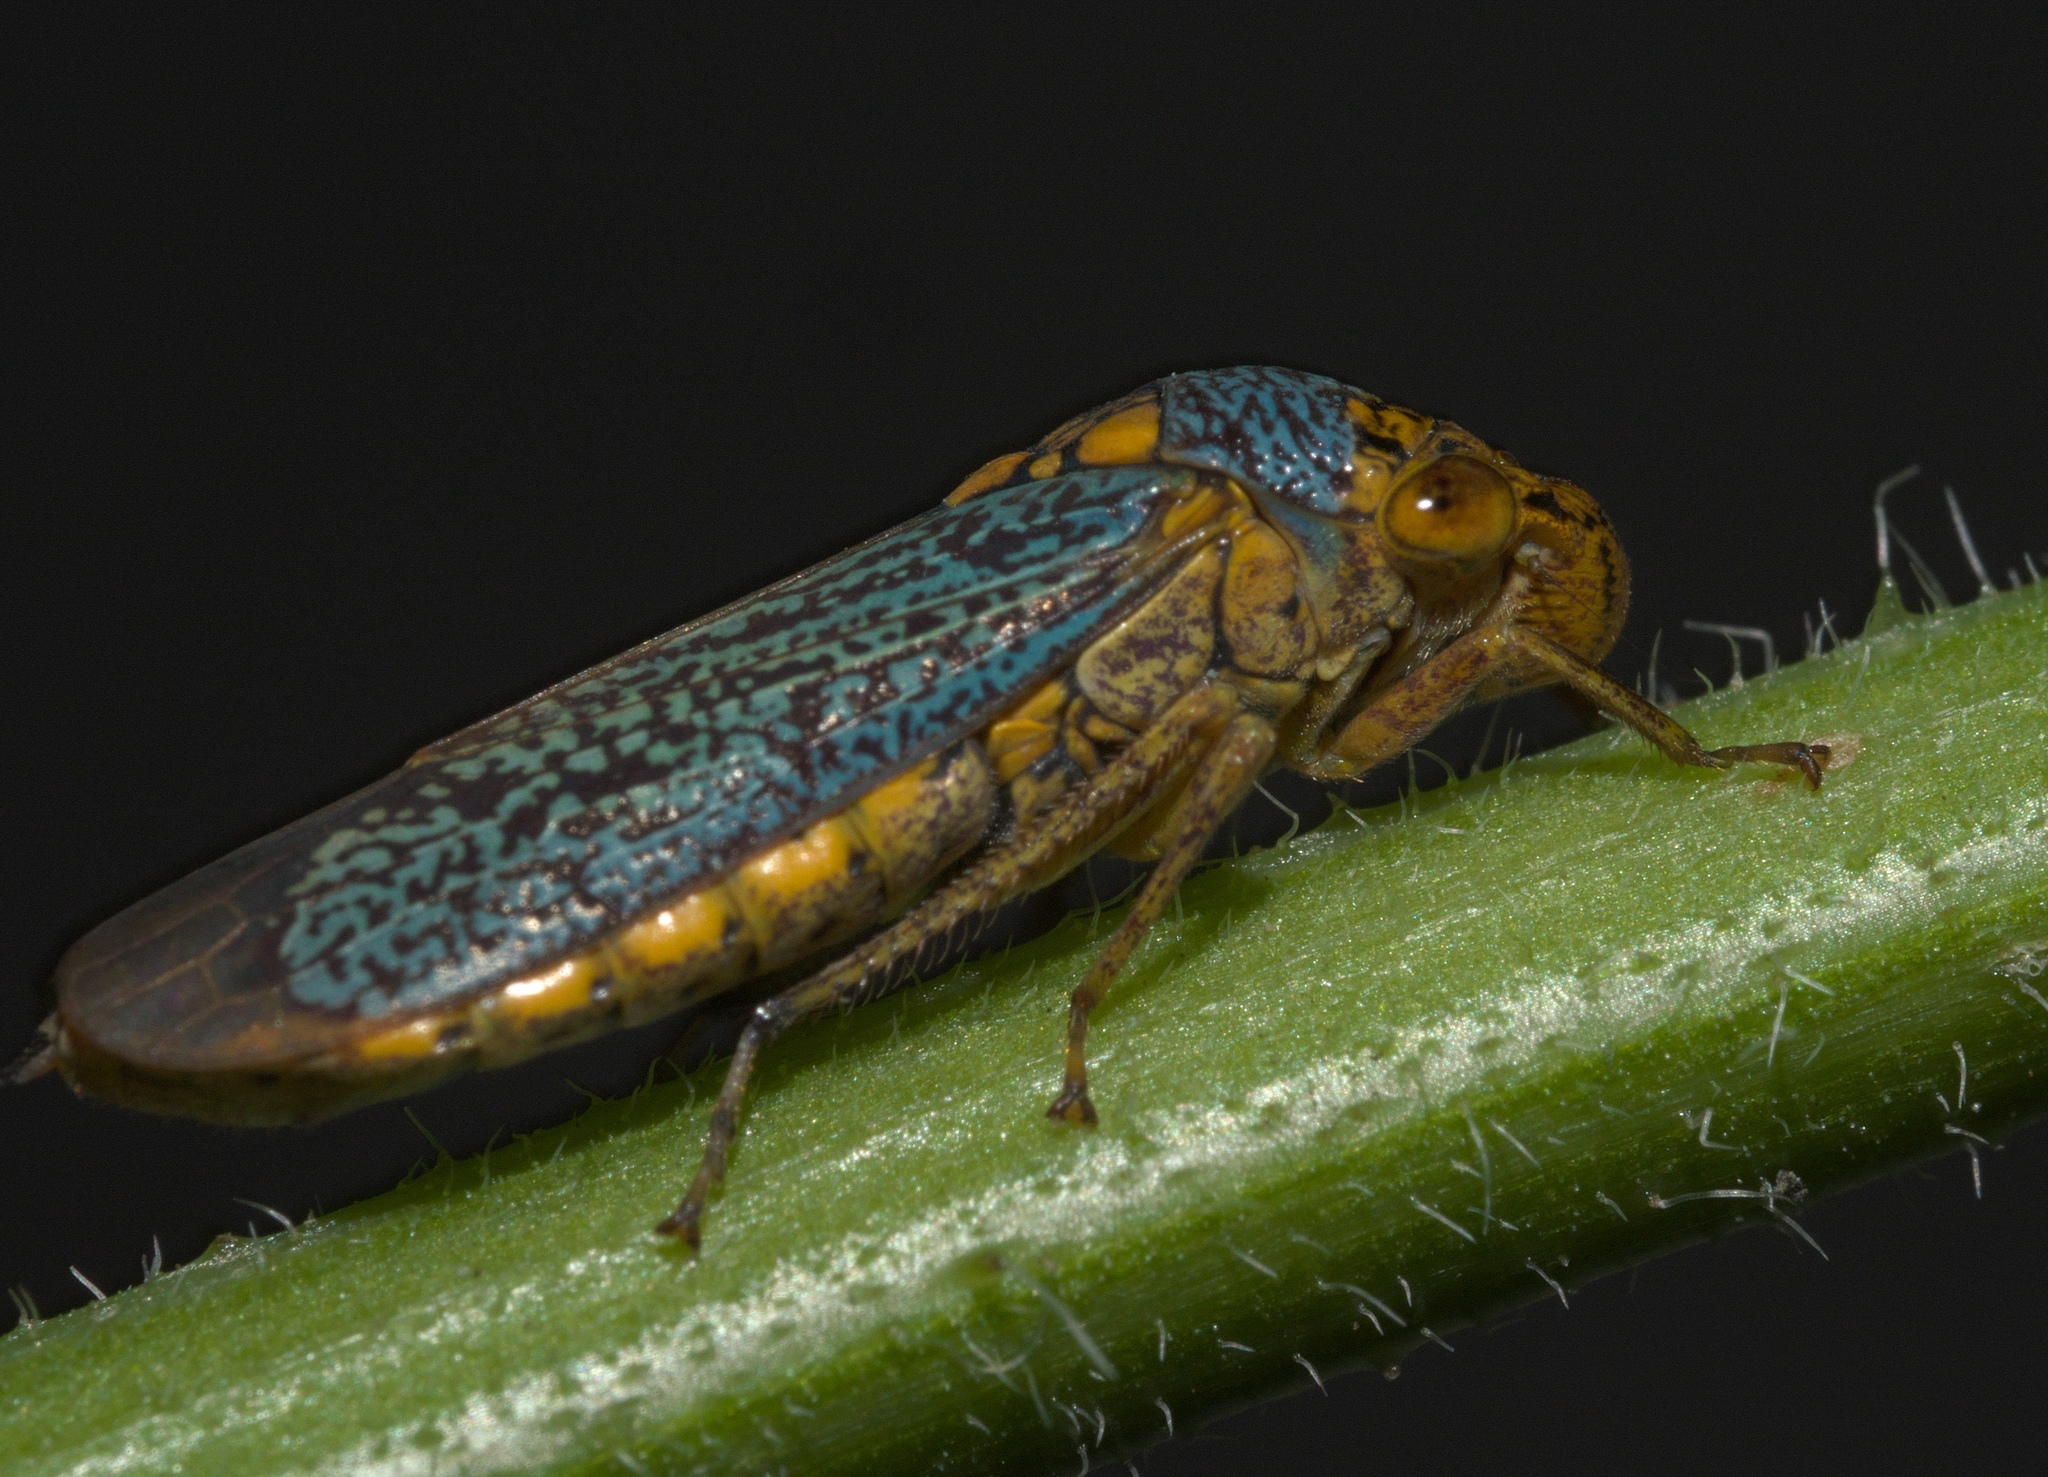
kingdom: Animalia
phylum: Arthropoda
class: Insecta
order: Hemiptera
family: Cicadellidae
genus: Oncometopia
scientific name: Oncometopia orbona
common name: Broad-headed sharpshooter
